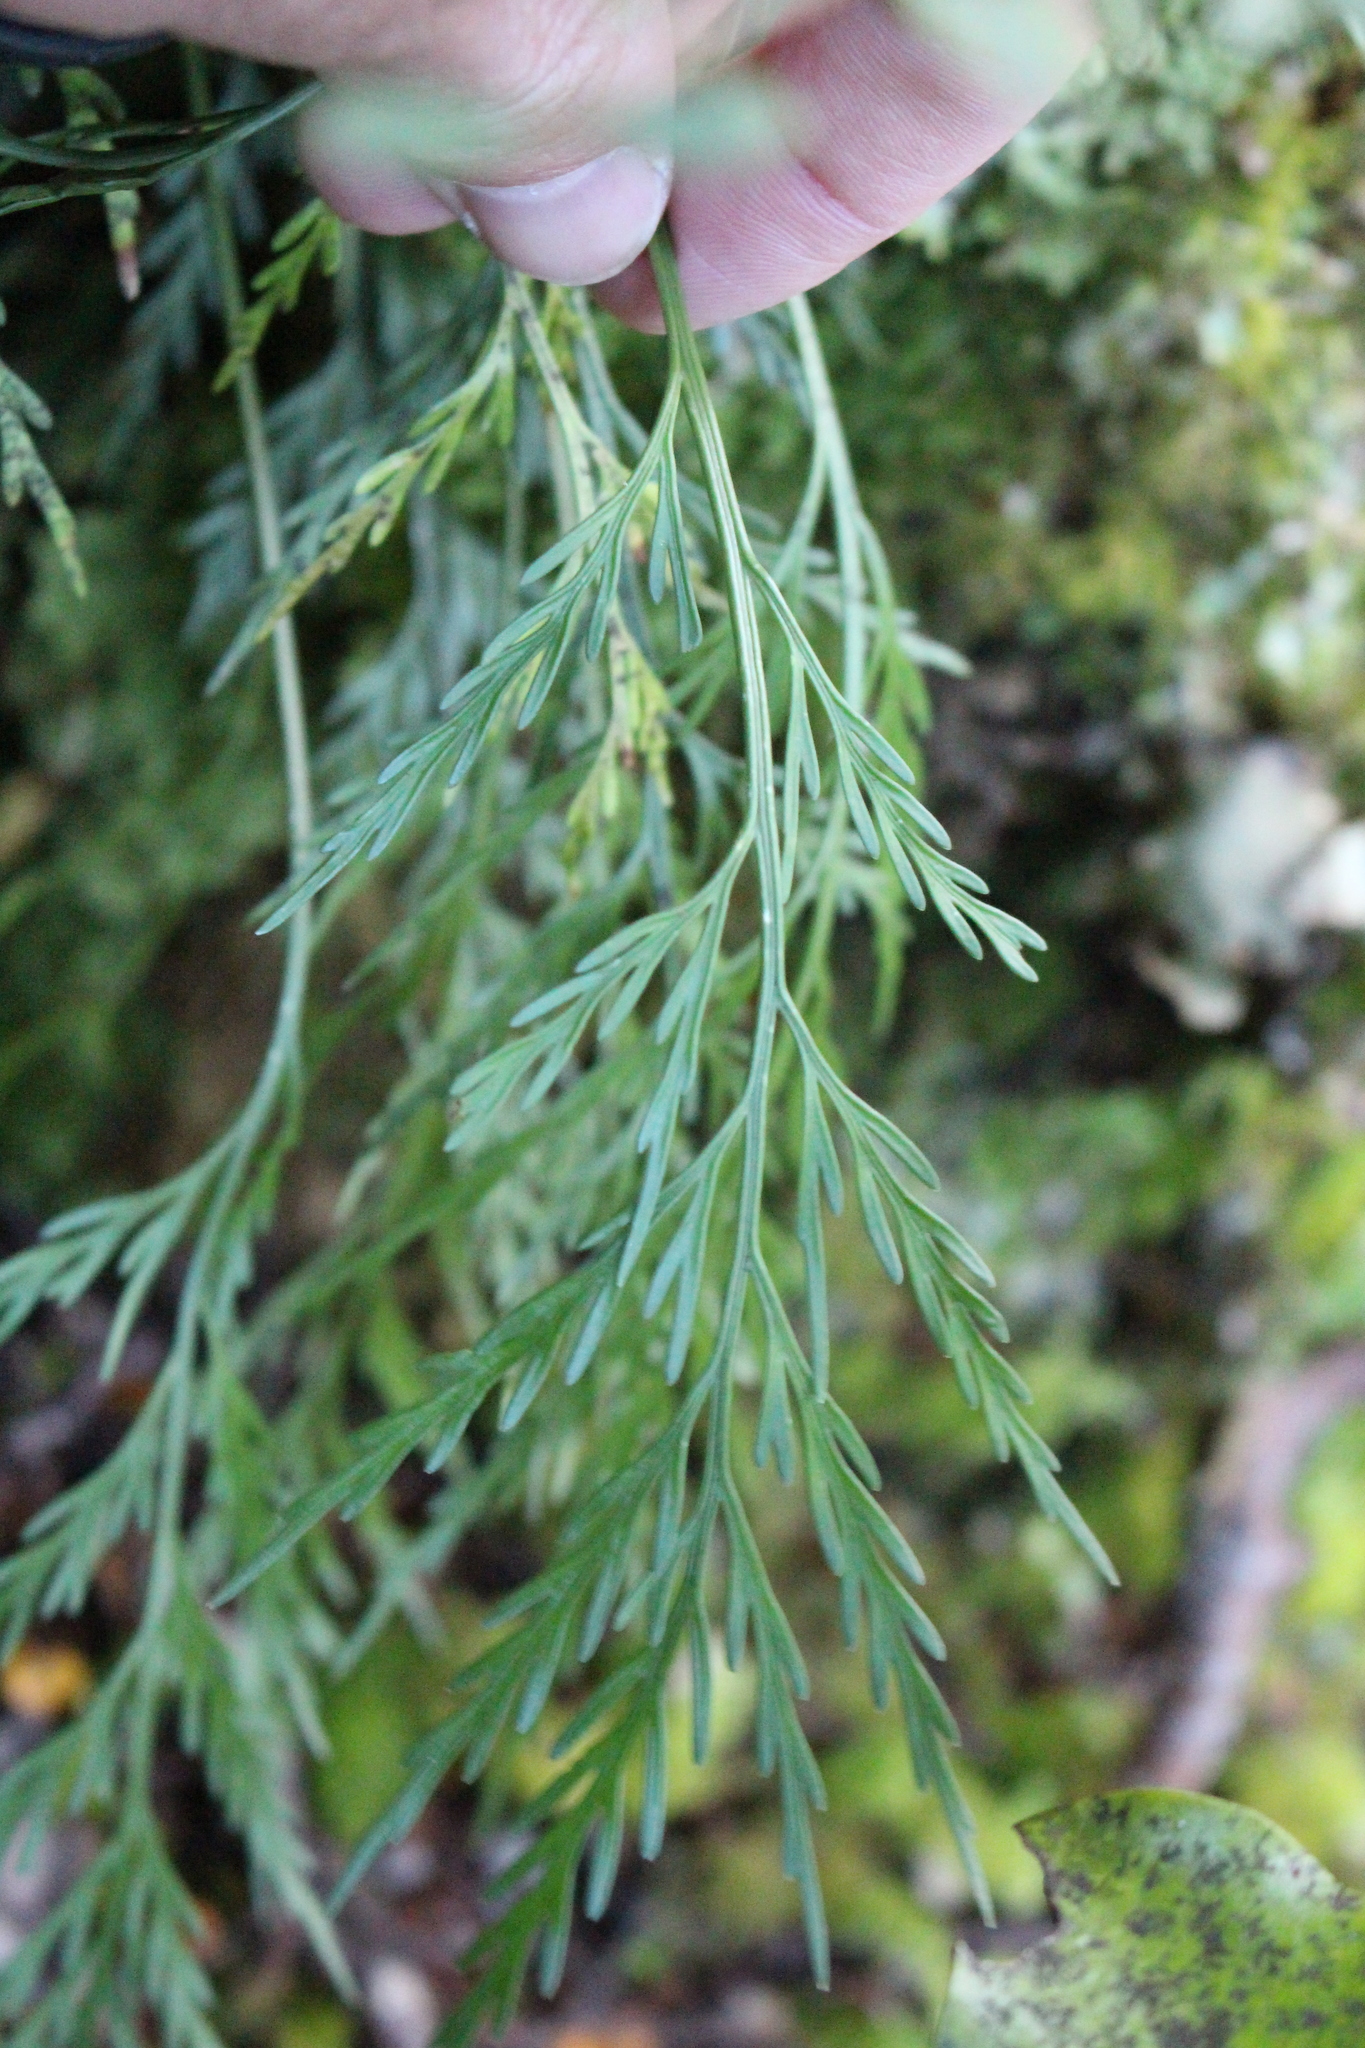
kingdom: Plantae
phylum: Tracheophyta
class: Polypodiopsida
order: Polypodiales
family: Aspleniaceae
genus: Asplenium
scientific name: Asplenium flaccidum
